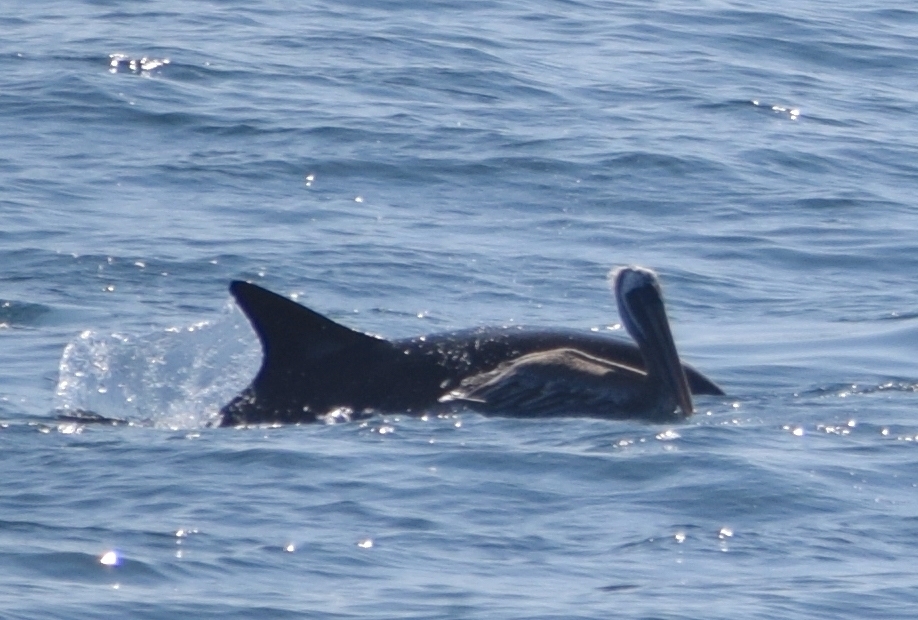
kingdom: Animalia
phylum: Chordata
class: Aves
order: Pelecaniformes
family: Pelecanidae
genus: Pelecanus
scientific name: Pelecanus occidentalis
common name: Brown pelican
